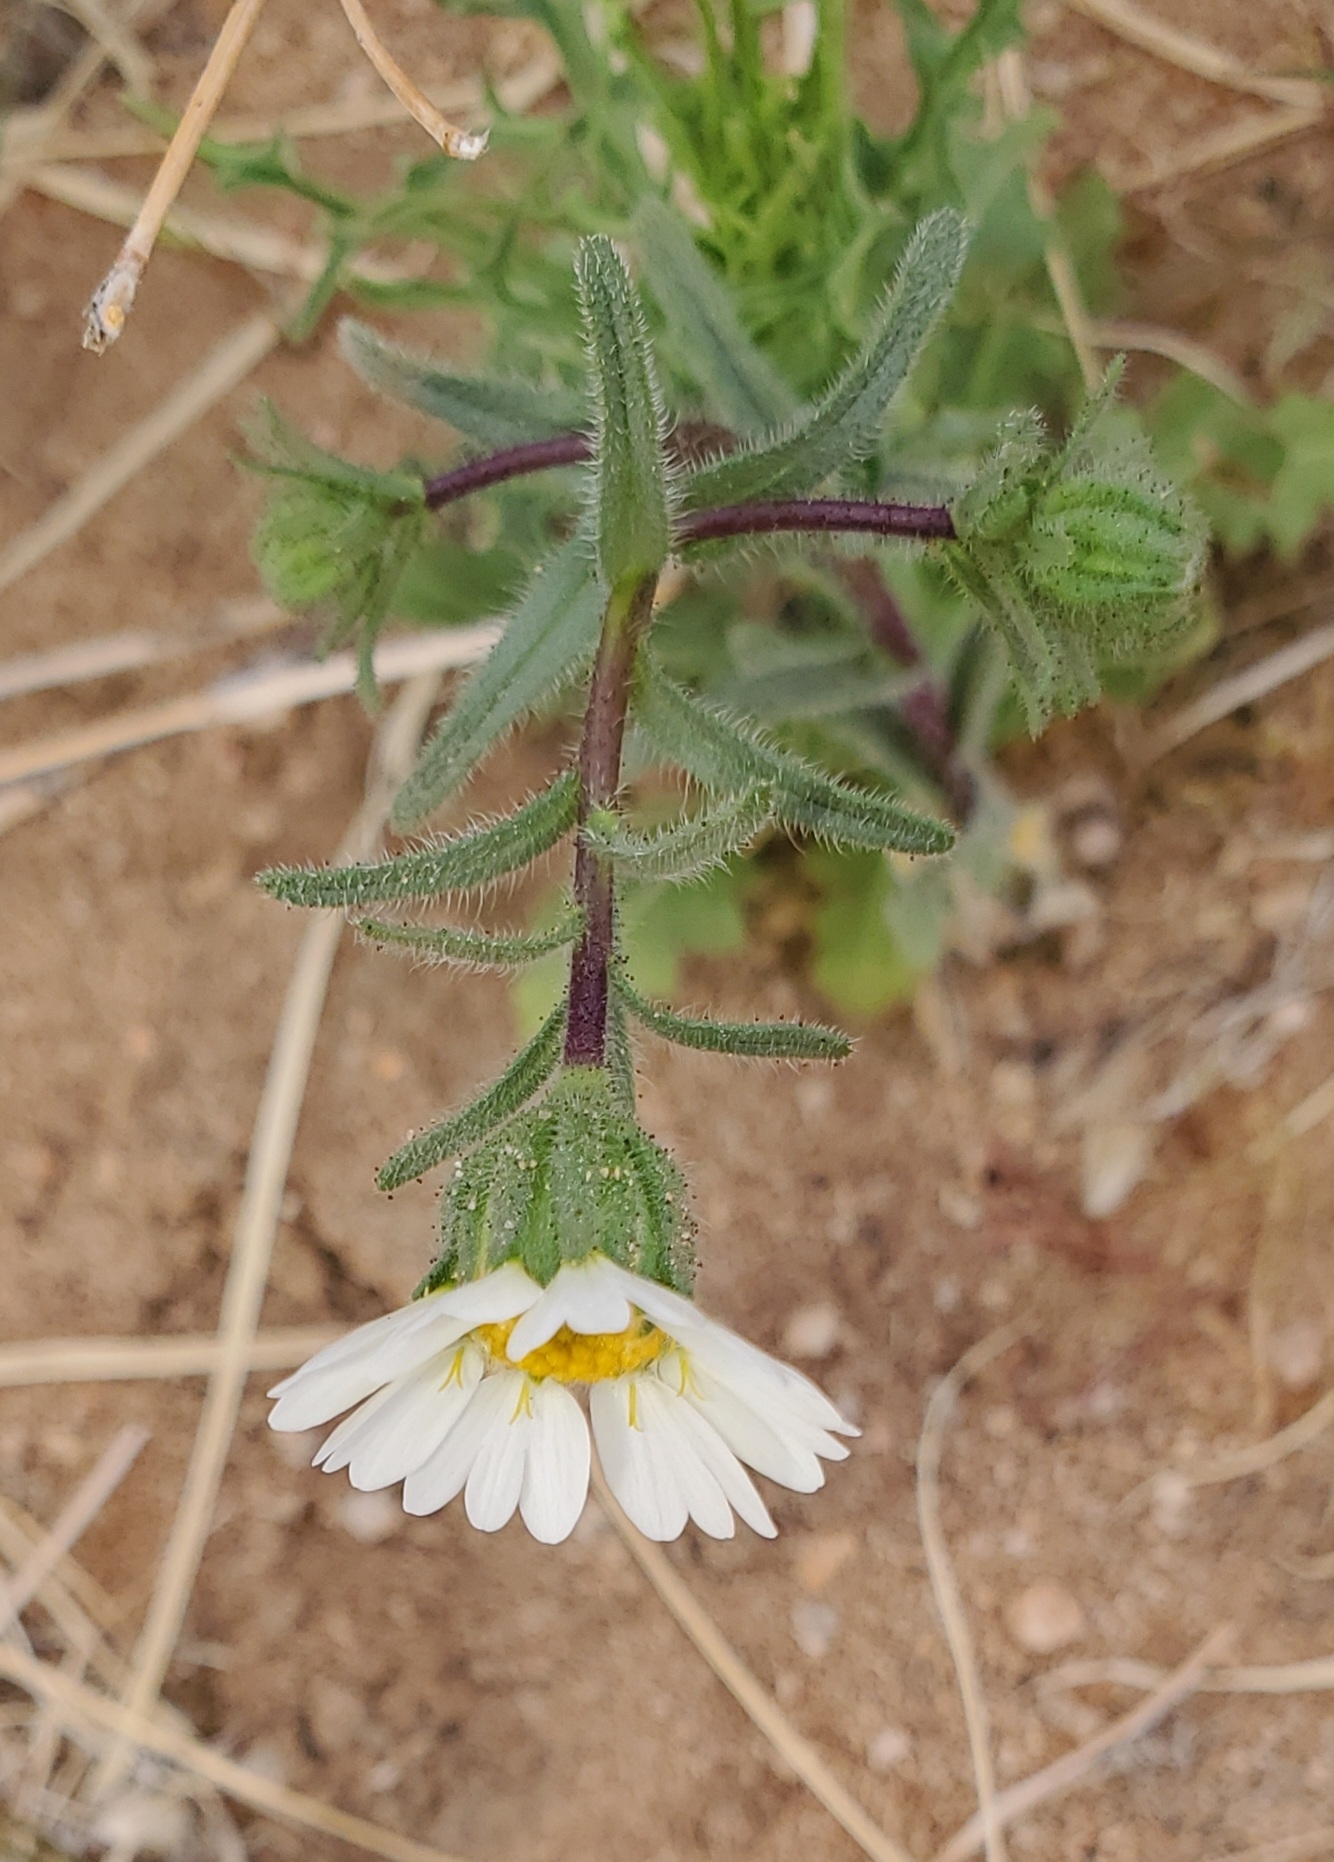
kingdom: Plantae
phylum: Tracheophyta
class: Magnoliopsida
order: Asterales
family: Asteraceae
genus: Layia
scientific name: Layia glandulosa
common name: White layia
